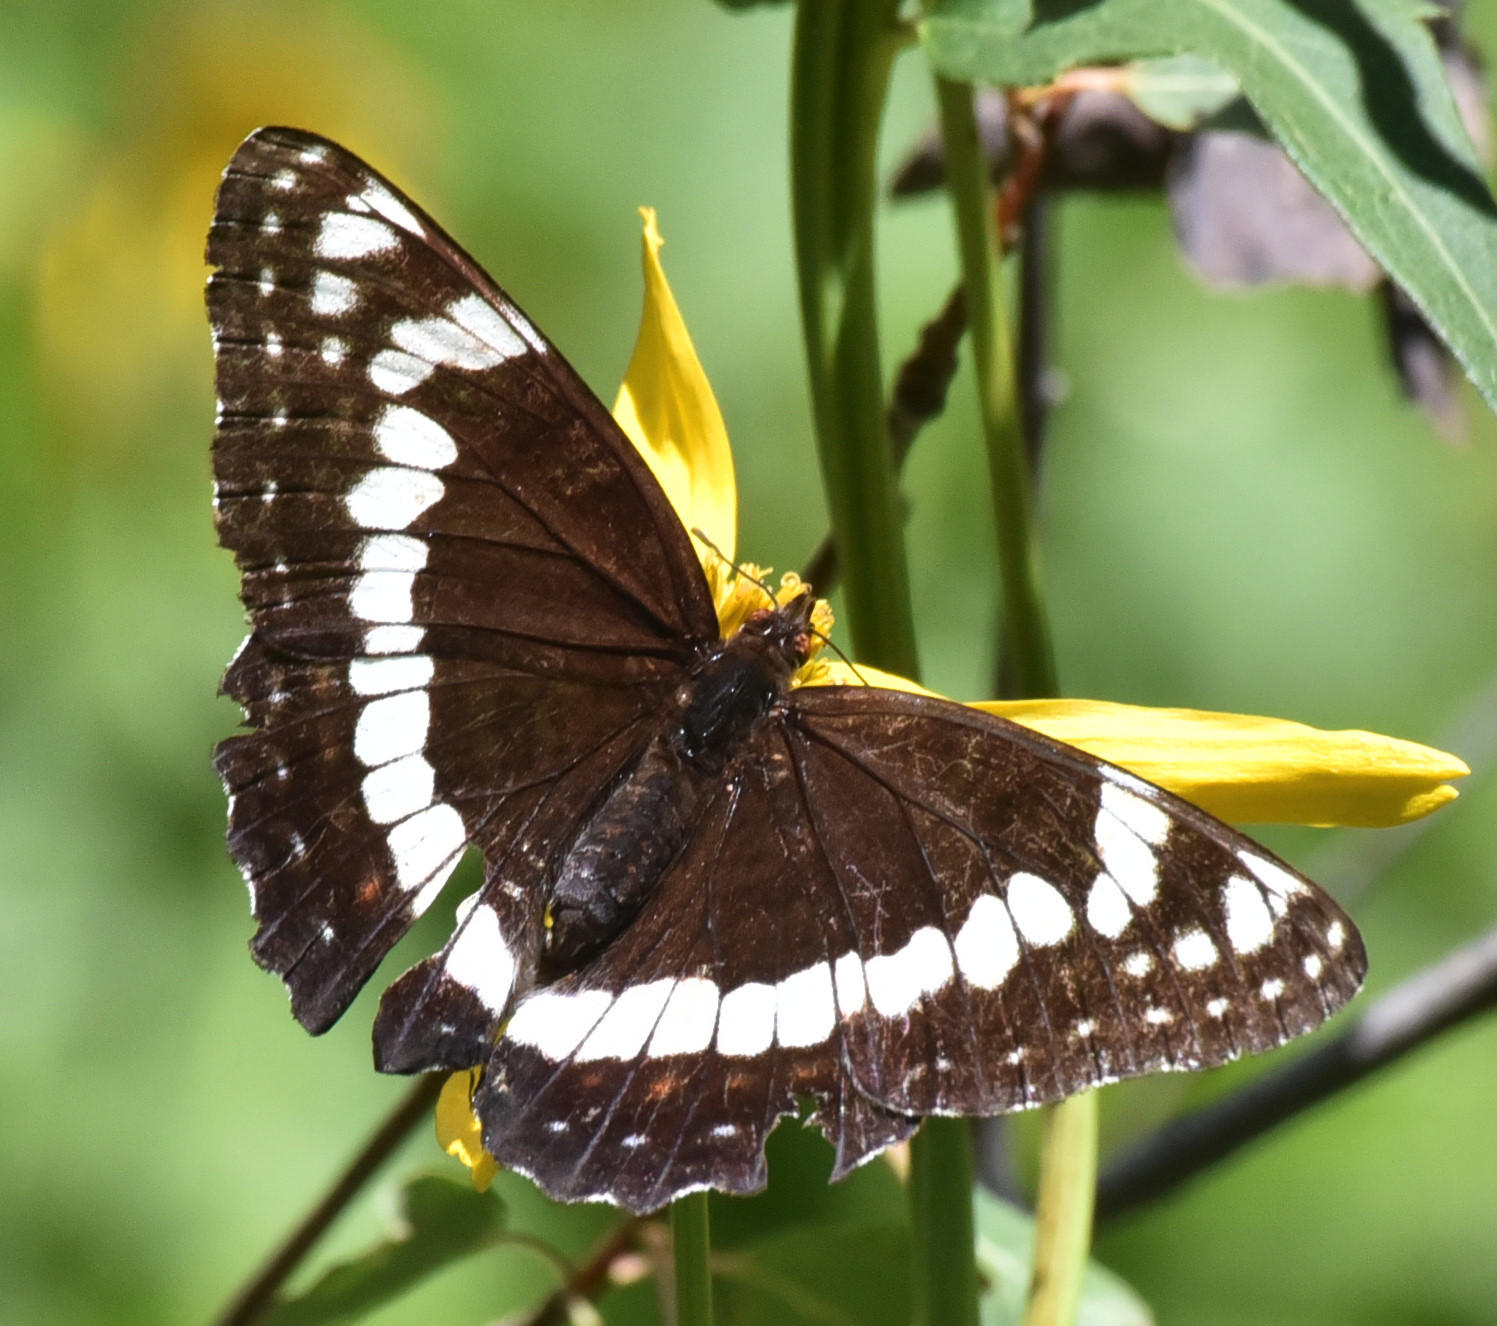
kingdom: Animalia
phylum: Arthropoda
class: Insecta
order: Lepidoptera
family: Nymphalidae
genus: Limenitis
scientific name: Limenitis weidemeyerii
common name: Weidemeyer's admiral
